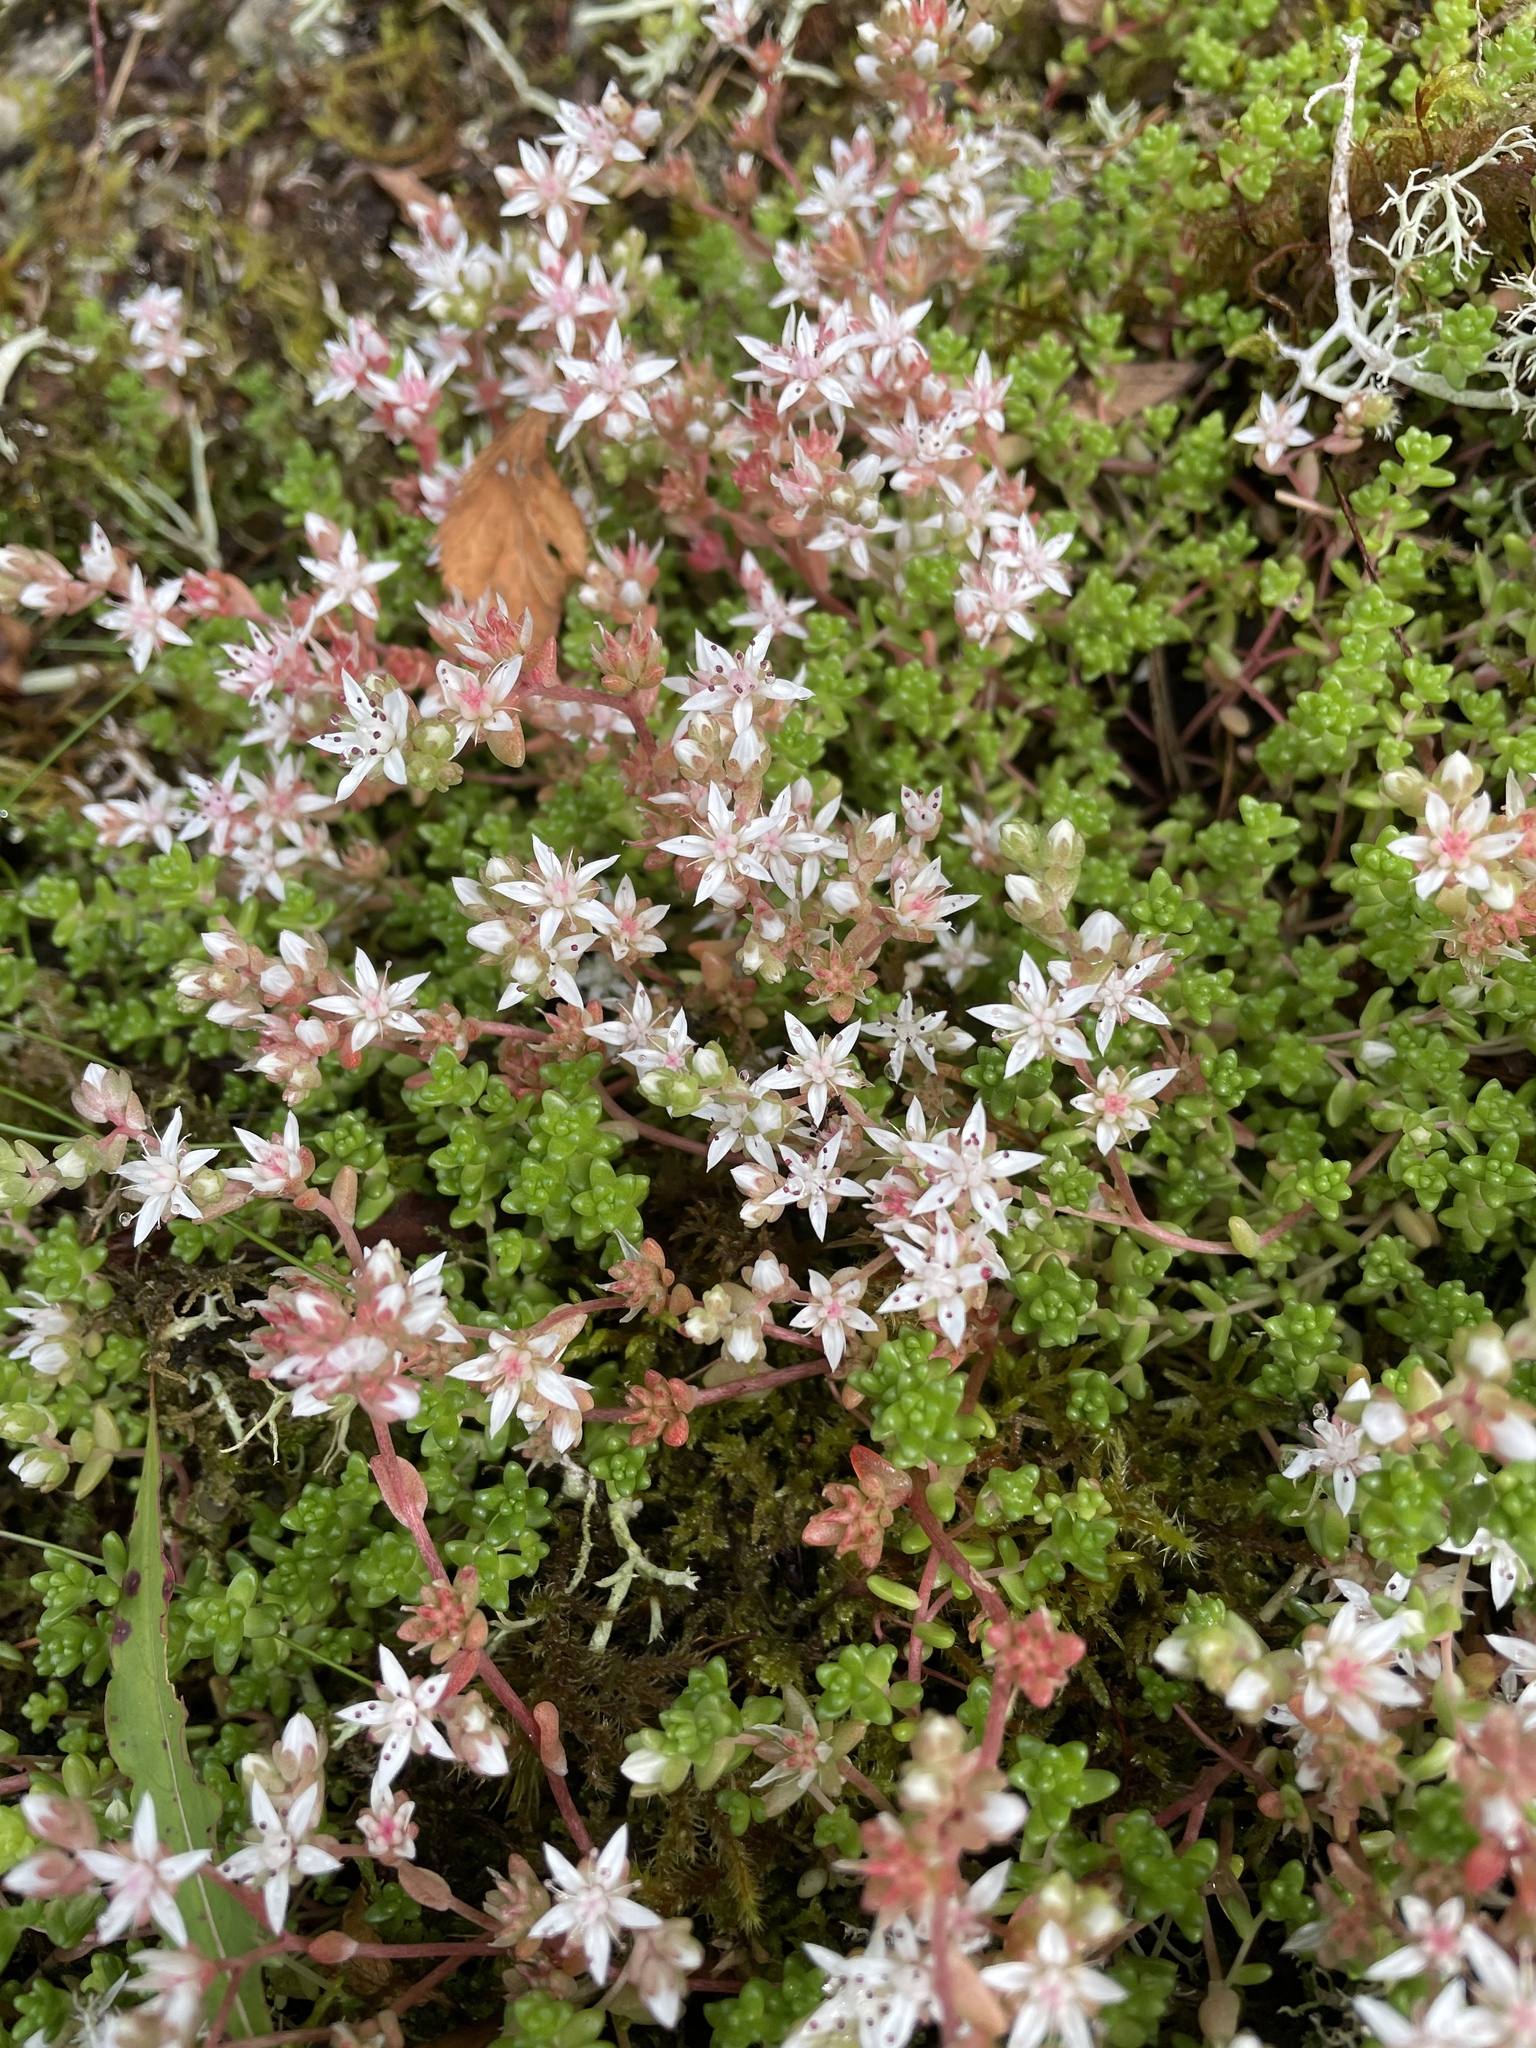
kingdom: Plantae
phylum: Tracheophyta
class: Magnoliopsida
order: Saxifragales
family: Crassulaceae
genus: Sedum
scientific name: Sedum anglicum
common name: English stonecrop
